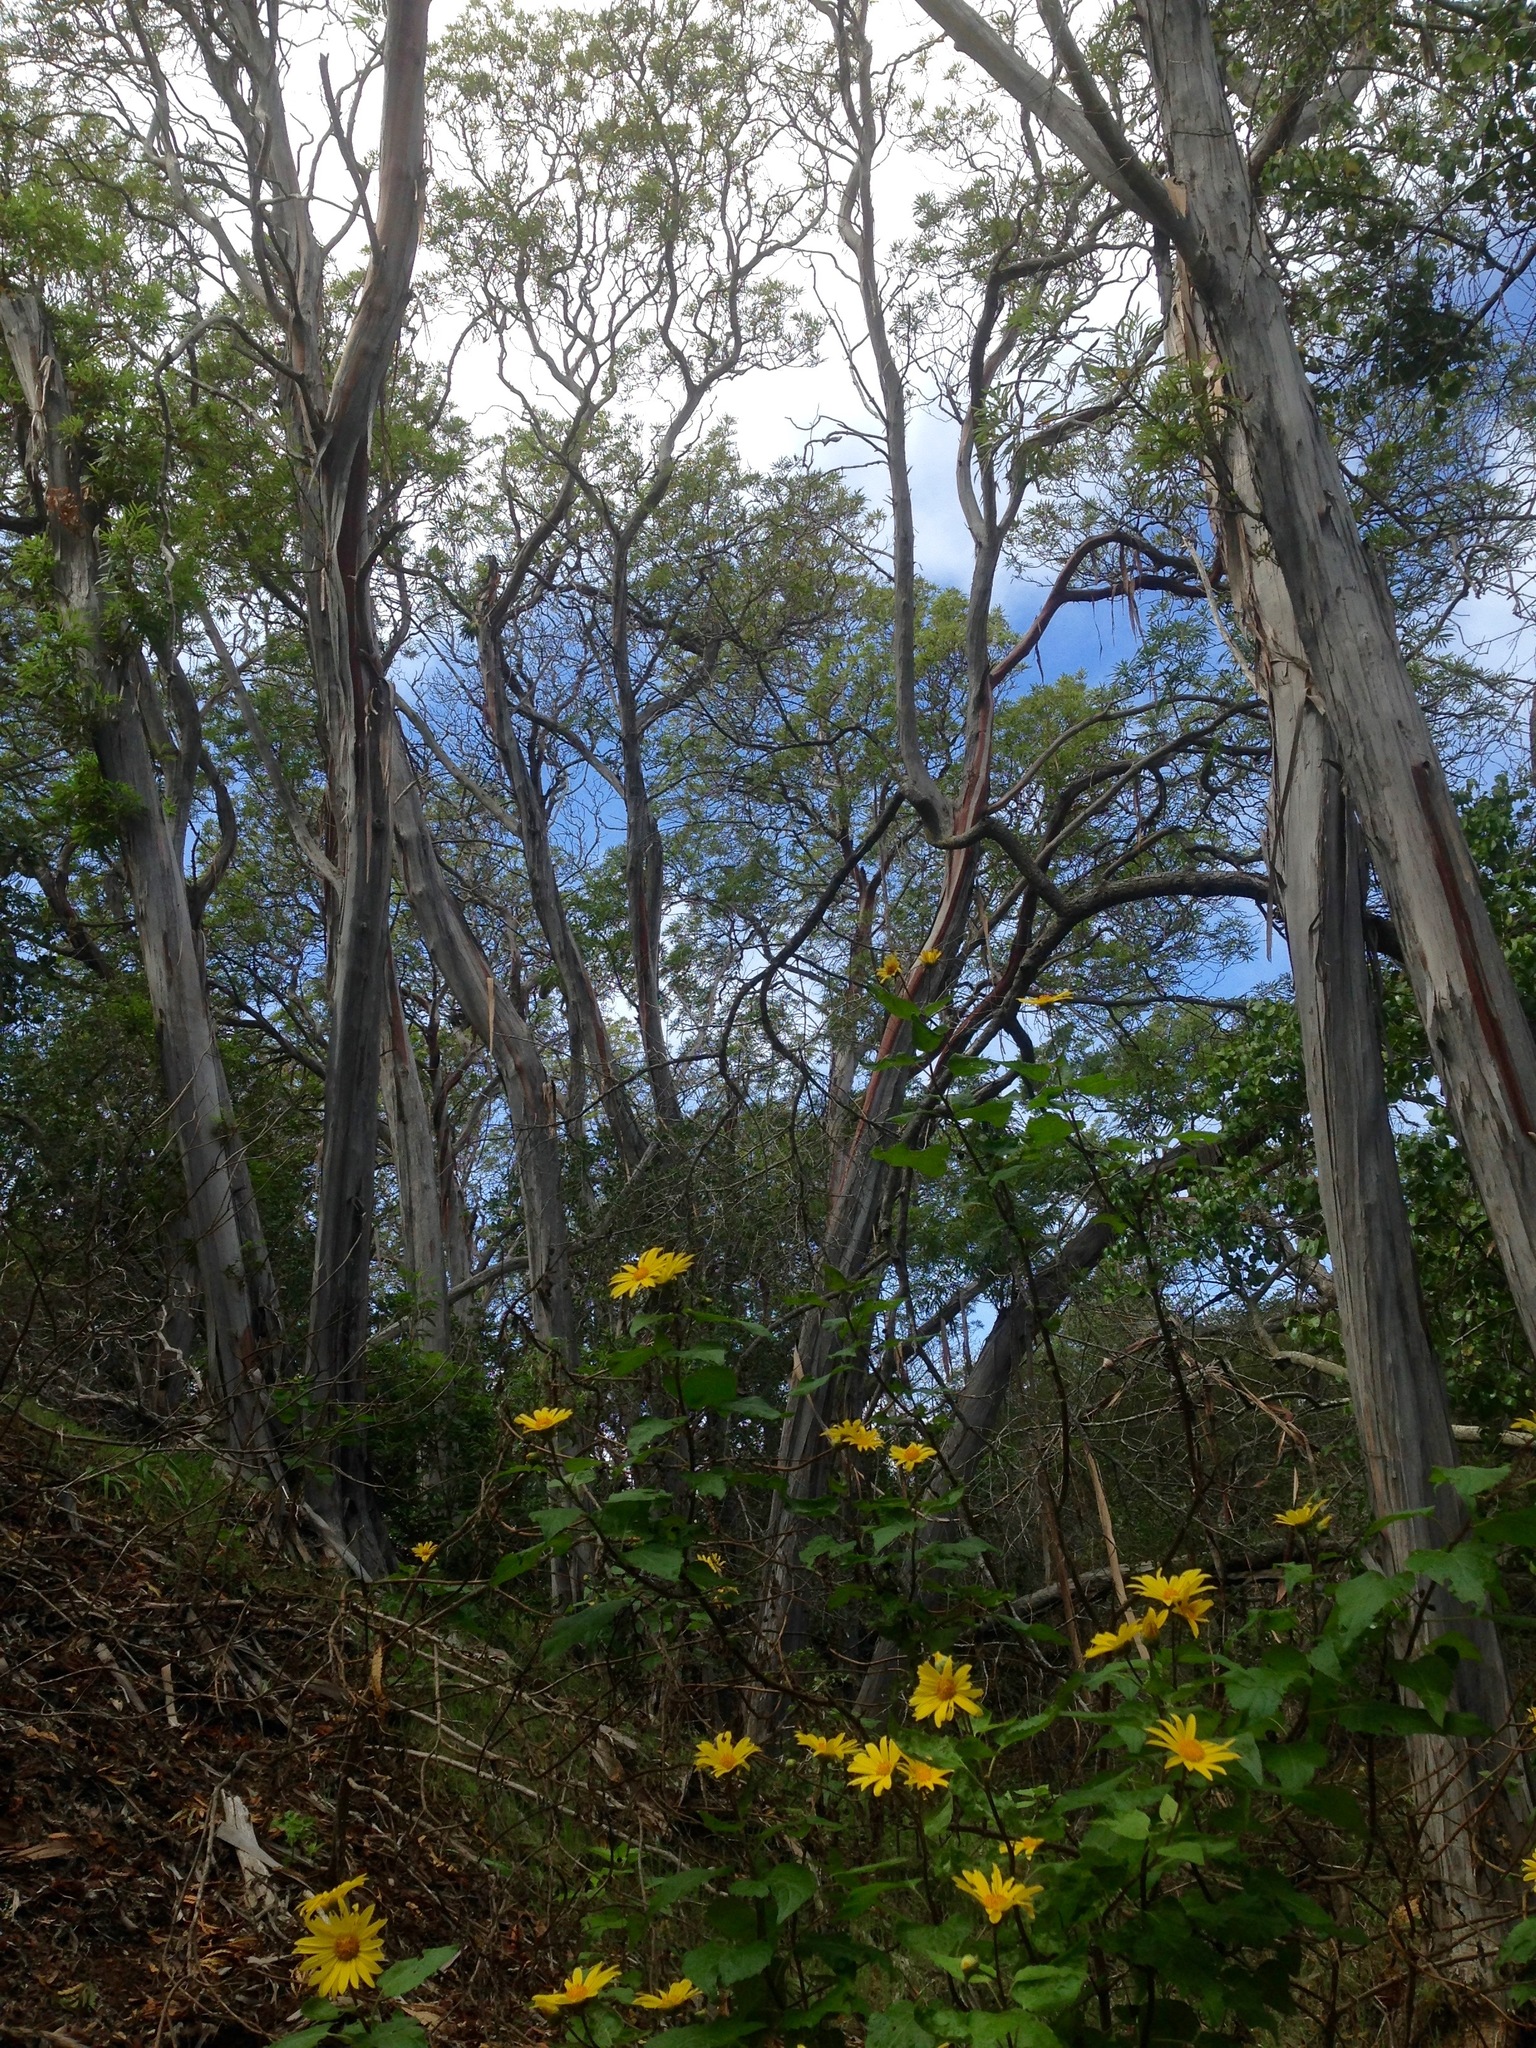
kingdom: Plantae
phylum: Tracheophyta
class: Magnoliopsida
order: Asterales
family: Asteraceae
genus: Venegasia
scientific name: Venegasia carpesioides
